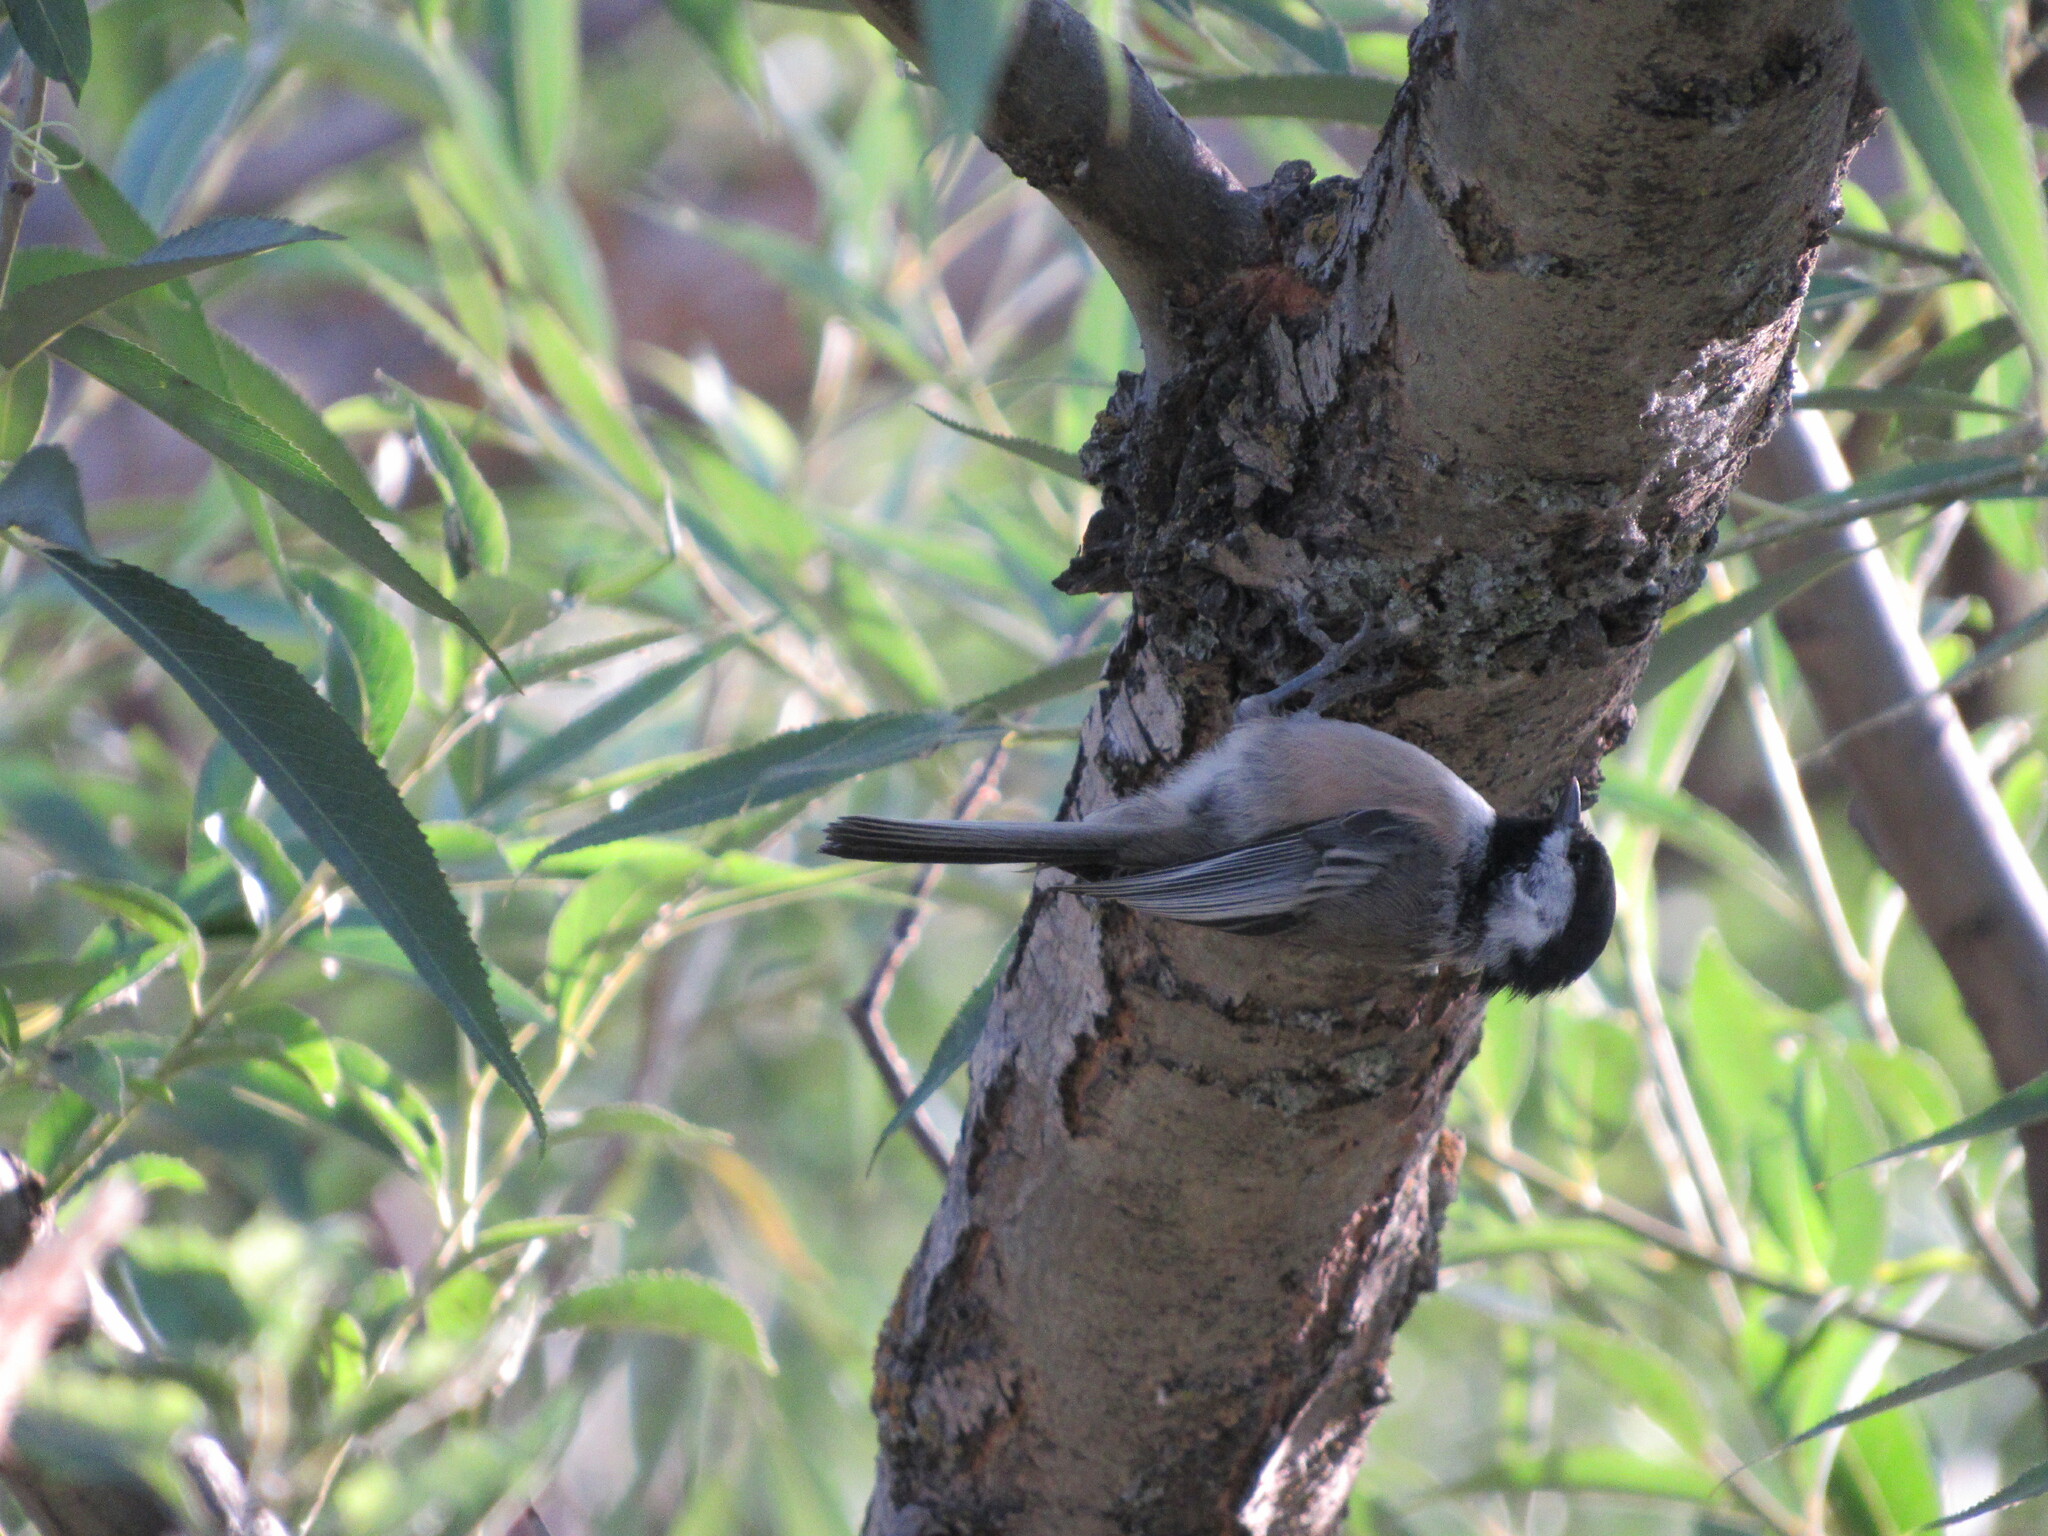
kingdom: Animalia
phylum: Chordata
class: Aves
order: Passeriformes
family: Paridae
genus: Poecile
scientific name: Poecile atricapillus
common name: Black-capped chickadee
